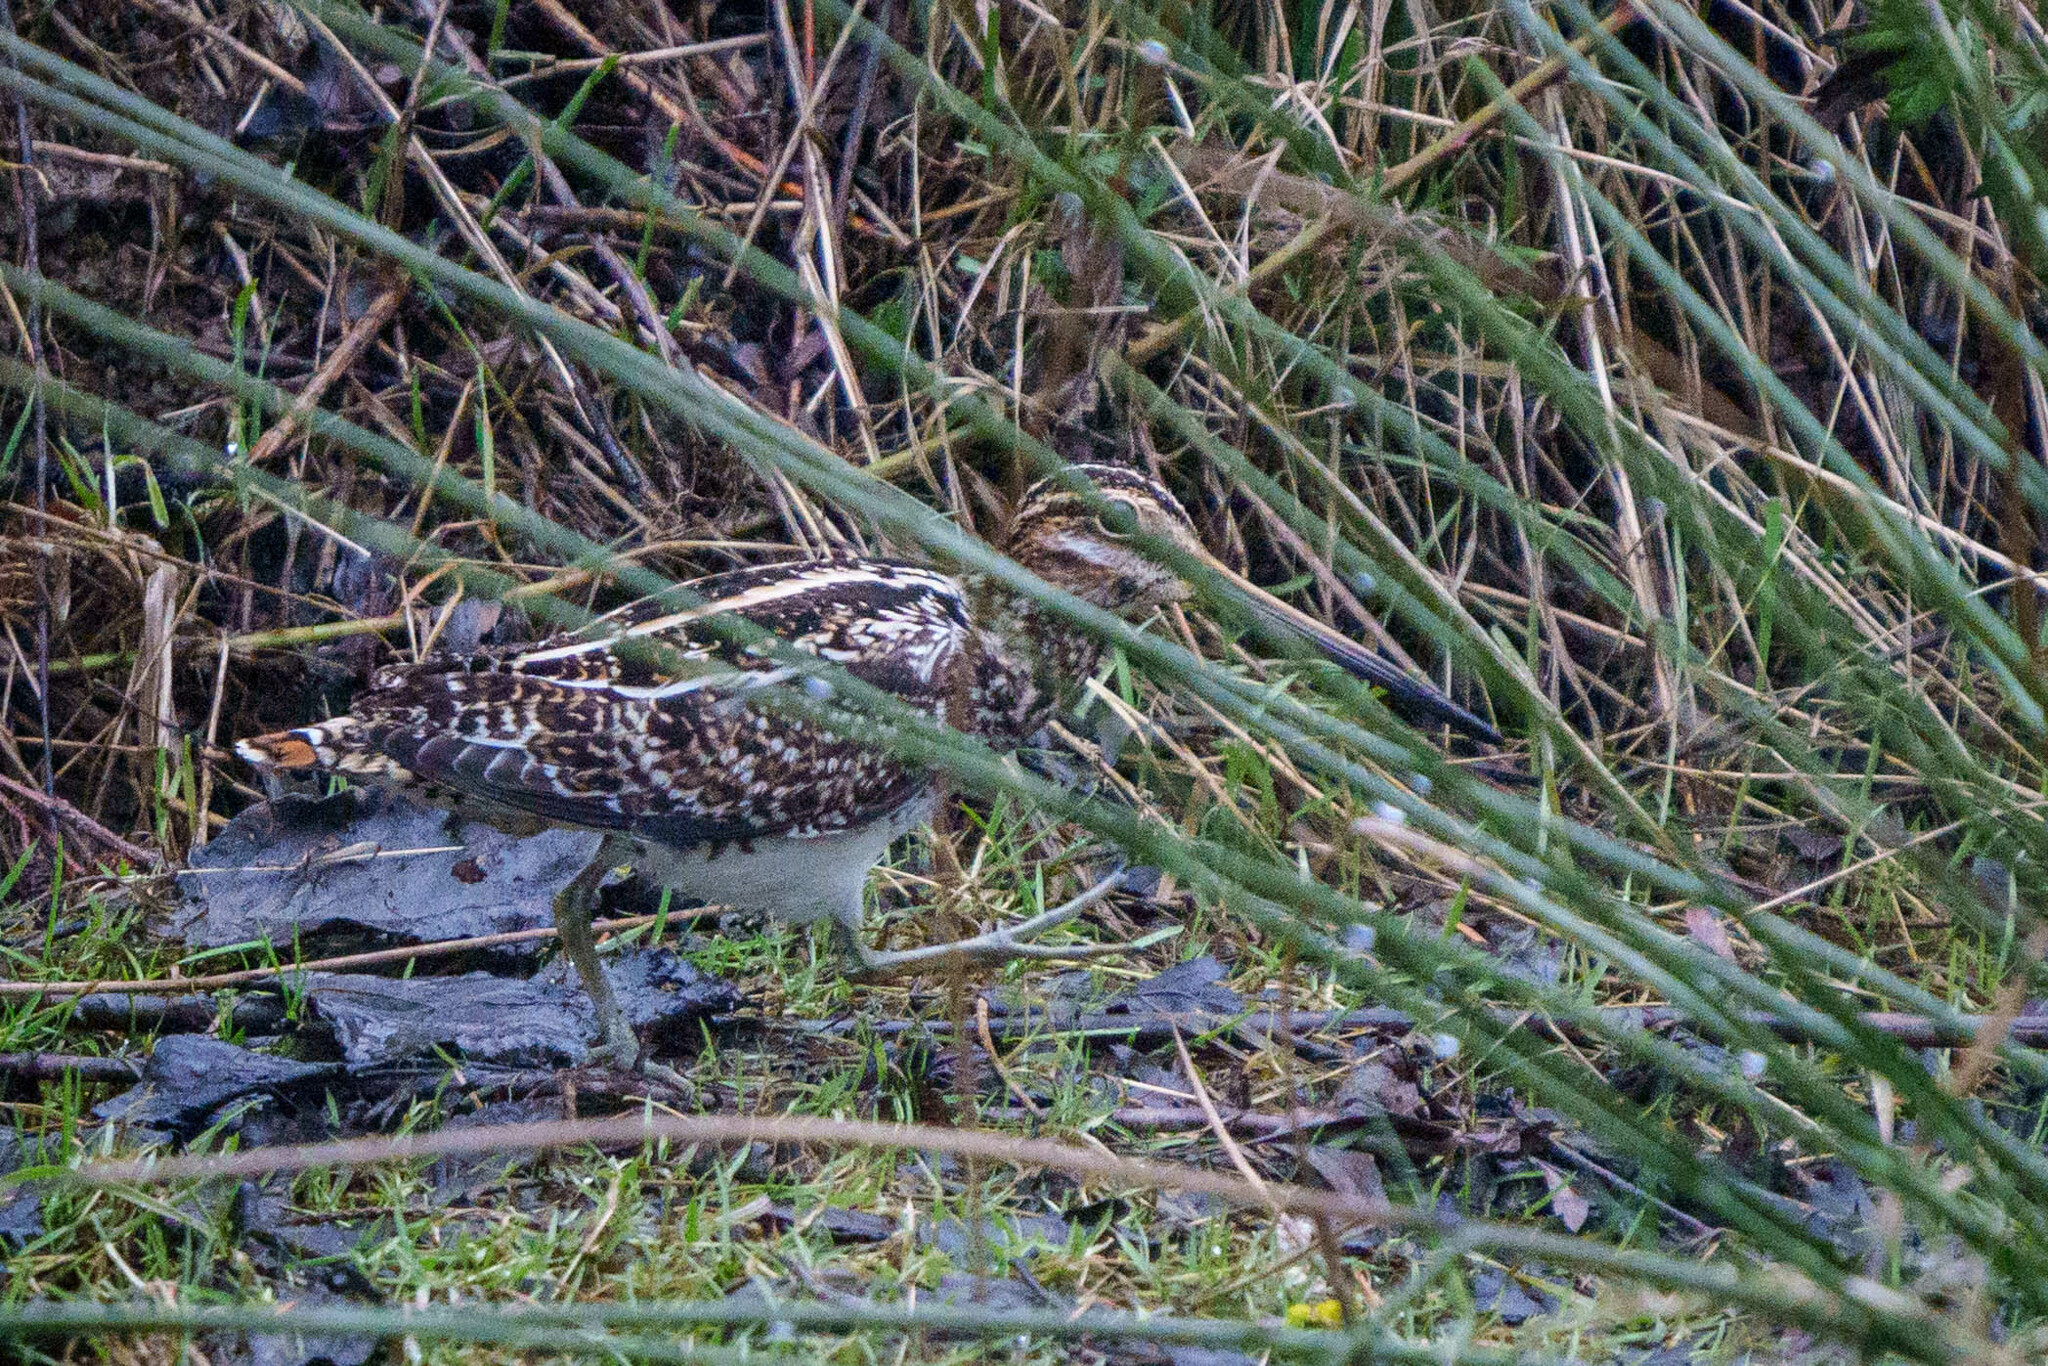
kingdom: Animalia
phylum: Chordata
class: Aves
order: Charadriiformes
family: Scolopacidae
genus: Gallinago
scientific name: Gallinago delicata
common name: Wilson's snipe
